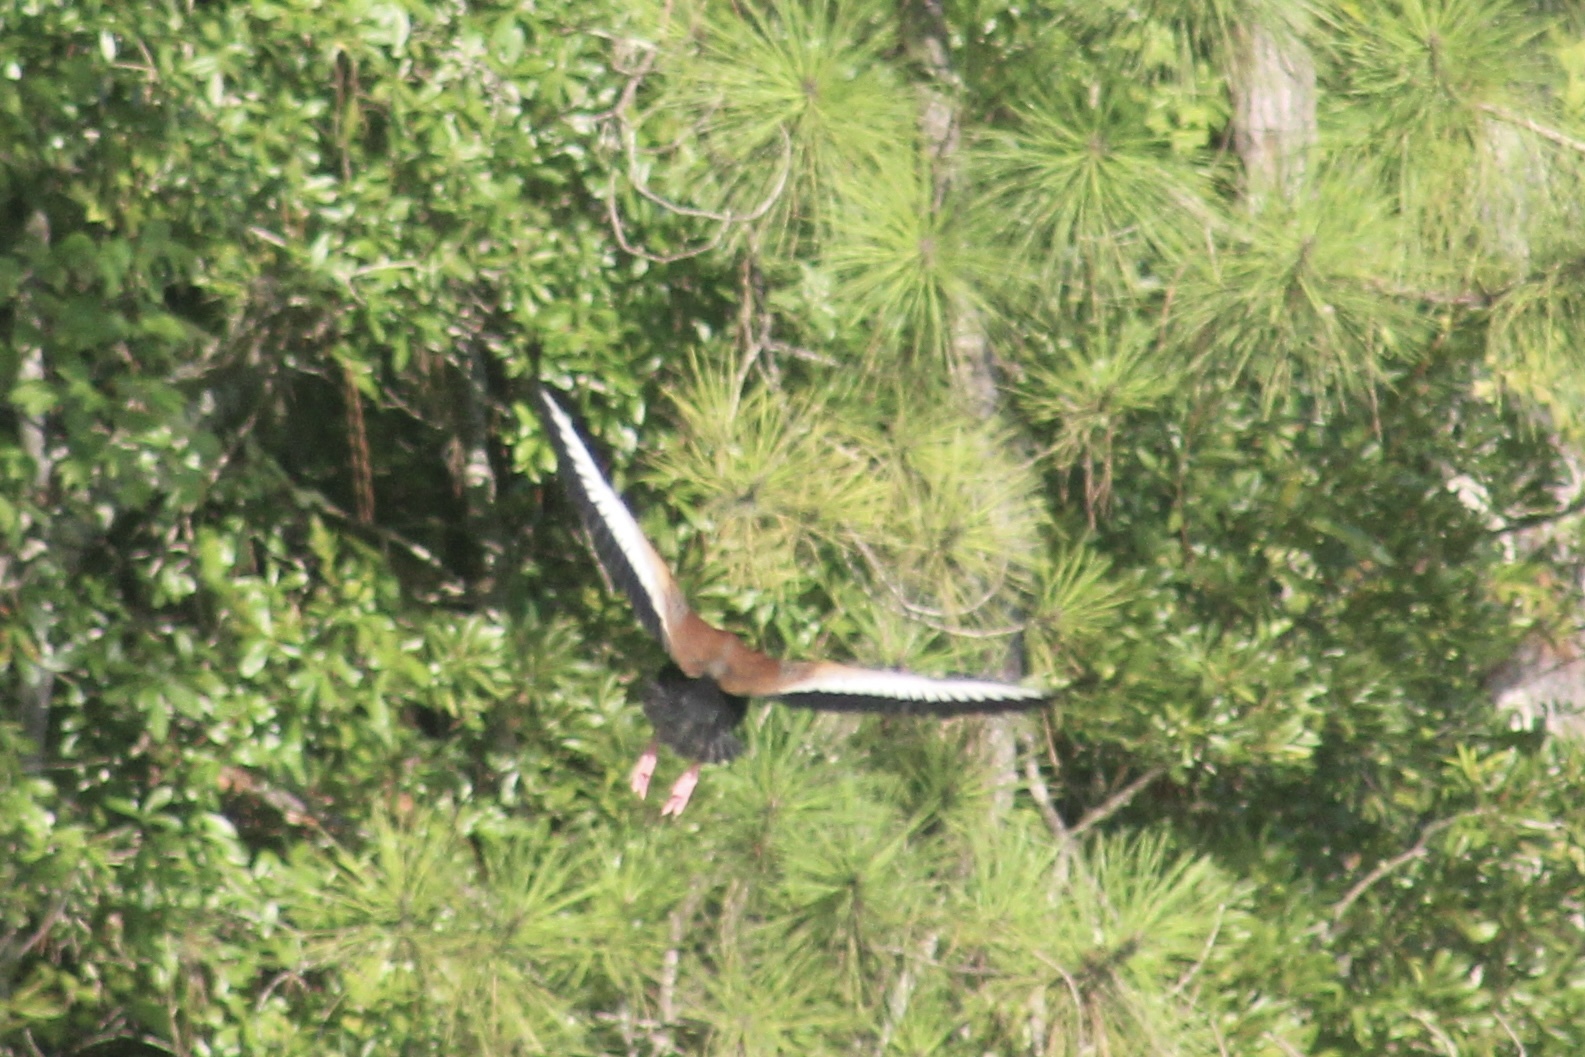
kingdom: Animalia
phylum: Chordata
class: Aves
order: Anseriformes
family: Anatidae
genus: Dendrocygna
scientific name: Dendrocygna autumnalis
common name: Black-bellied whistling duck
